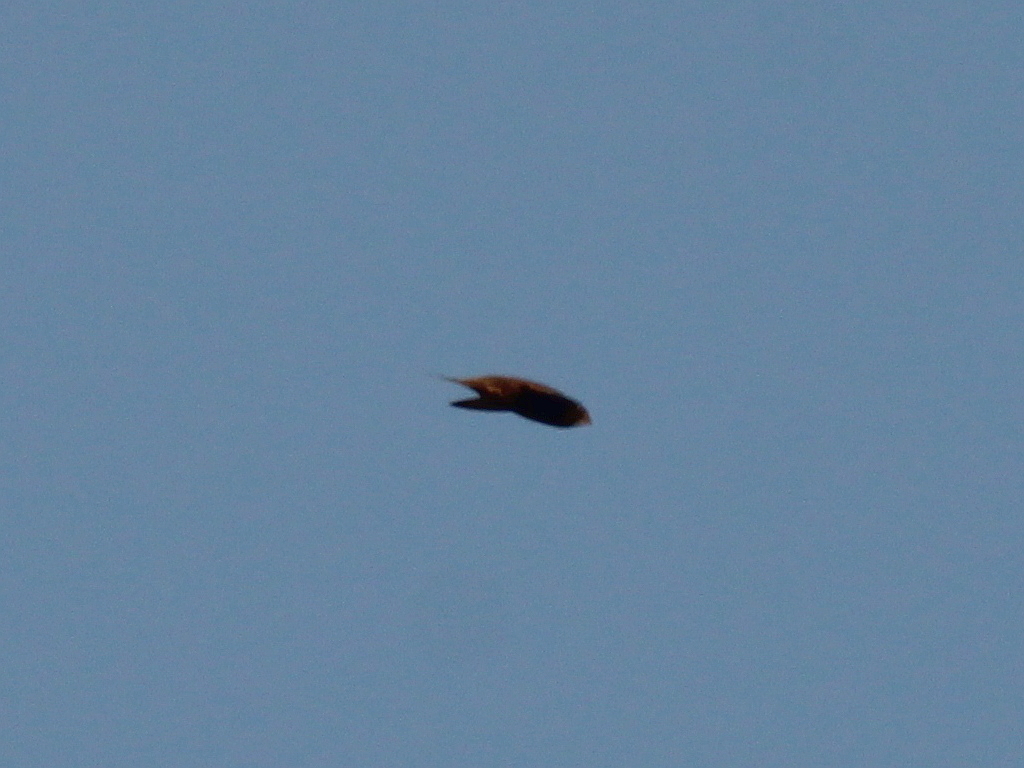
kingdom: Animalia
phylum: Chordata
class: Aves
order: Apodiformes
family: Apodidae
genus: Apus
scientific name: Apus apus
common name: Common swift
